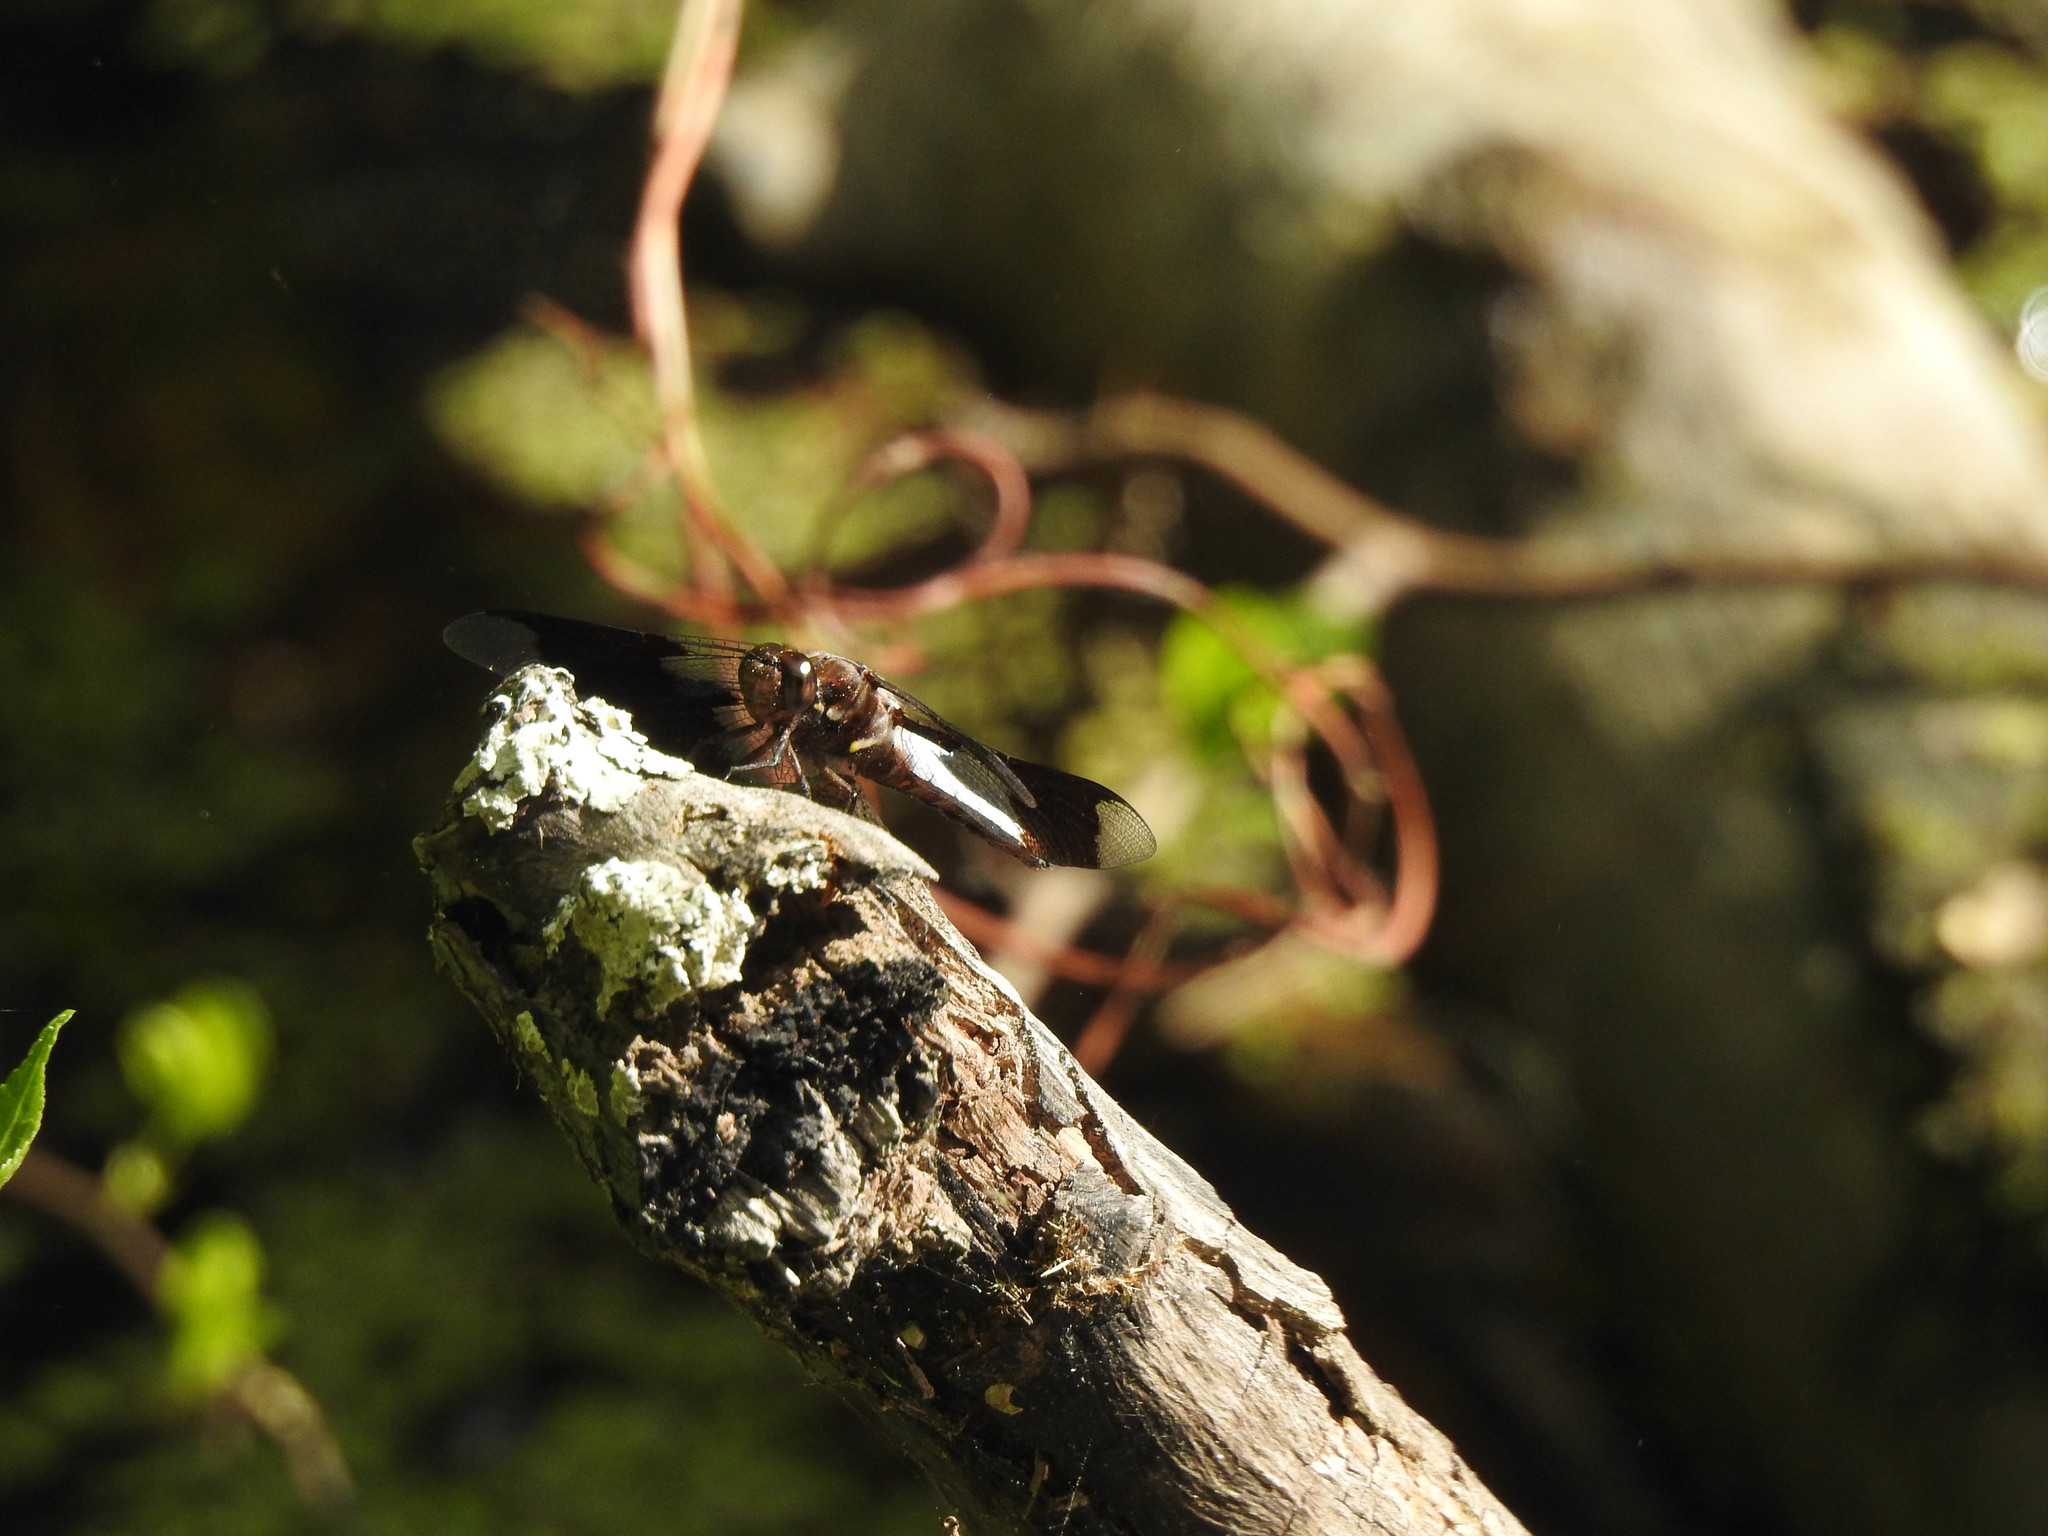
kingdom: Animalia
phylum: Arthropoda
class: Insecta
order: Odonata
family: Libellulidae
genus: Plathemis
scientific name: Plathemis lydia
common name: Common whitetail
